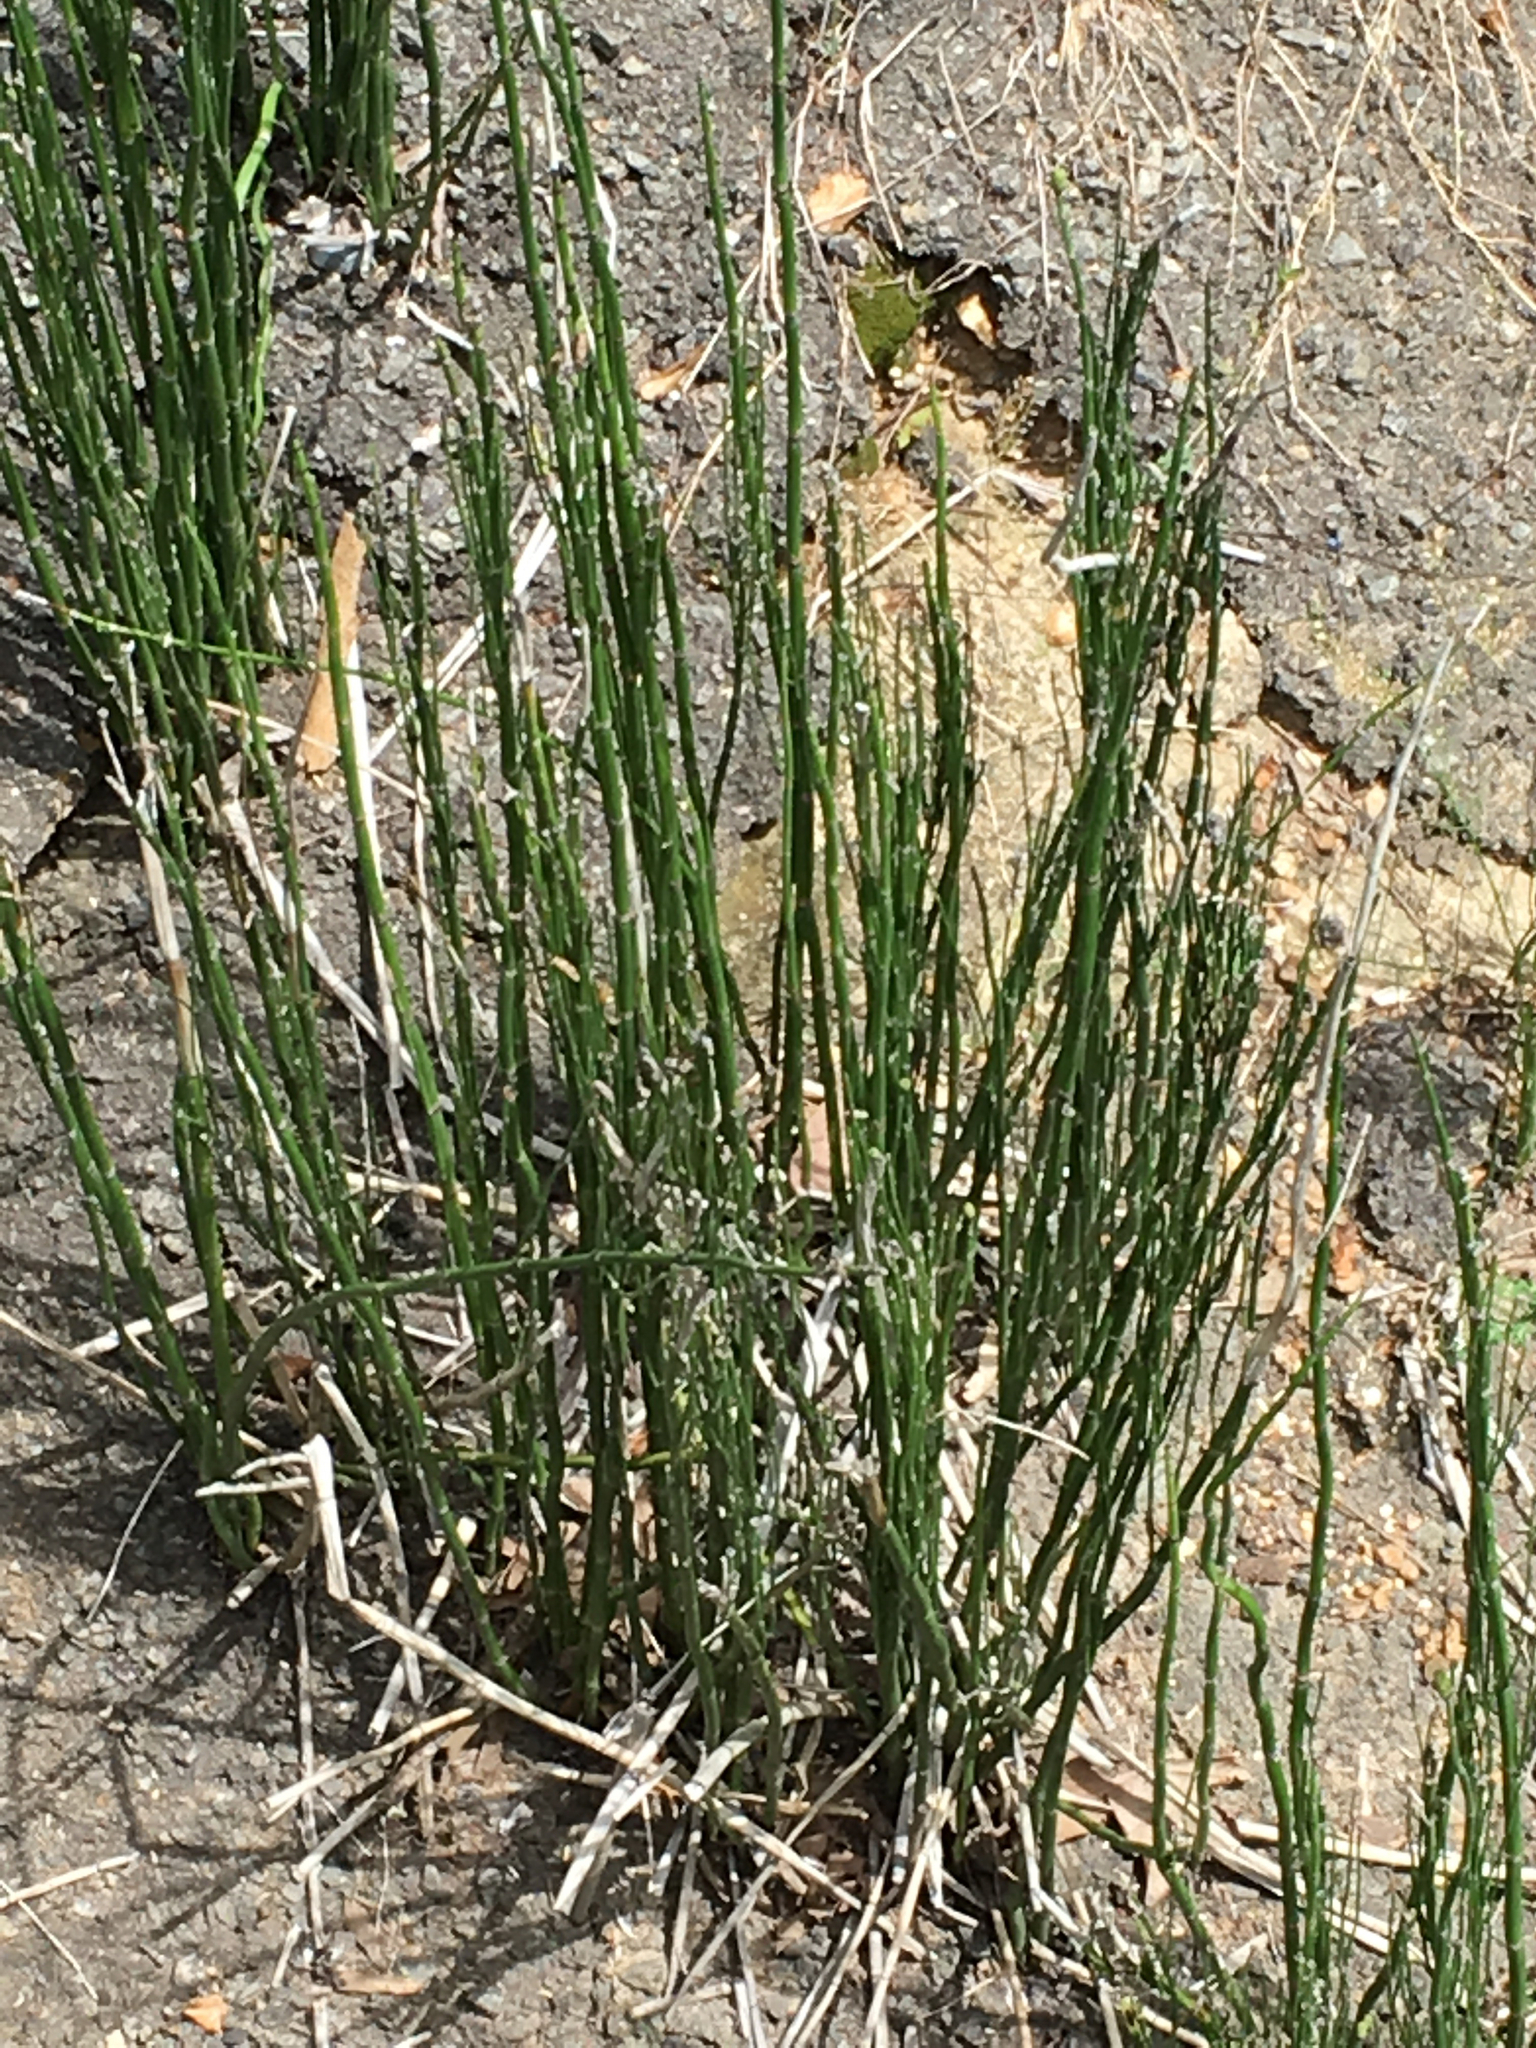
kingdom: Plantae
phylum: Tracheophyta
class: Polypodiopsida
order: Equisetales
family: Equisetaceae
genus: Equisetum
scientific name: Equisetum praealtum
